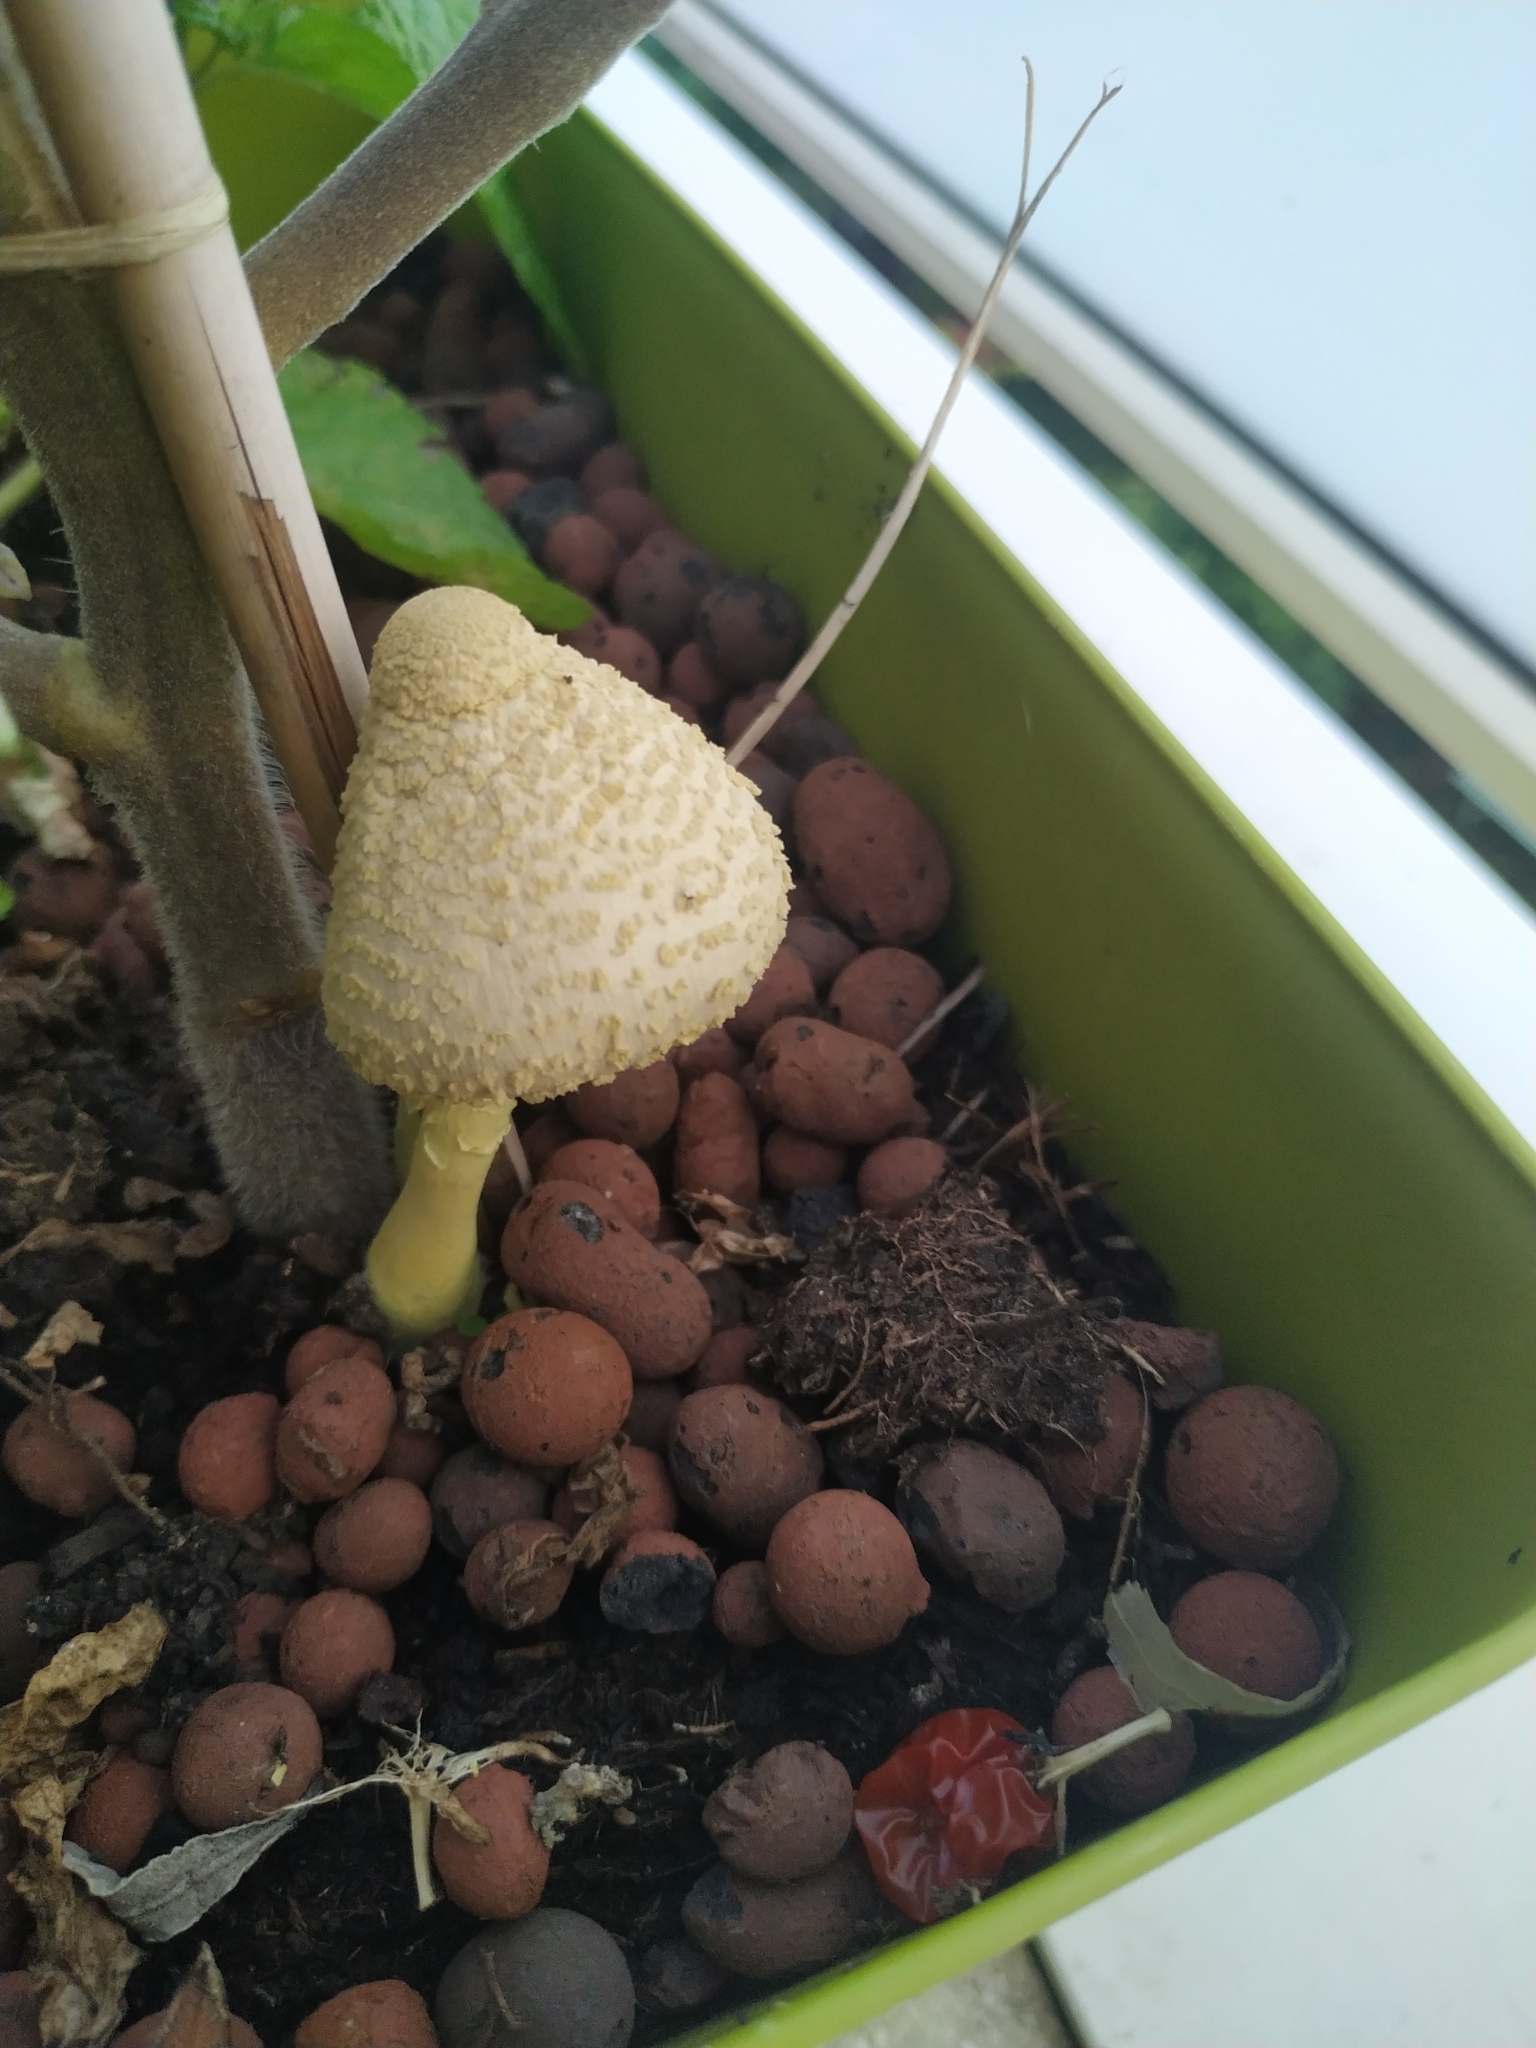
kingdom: Fungi
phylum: Basidiomycota
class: Agaricomycetes
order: Agaricales
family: Agaricaceae
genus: Leucocoprinus
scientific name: Leucocoprinus birnbaumii
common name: Plantpot dapperling
